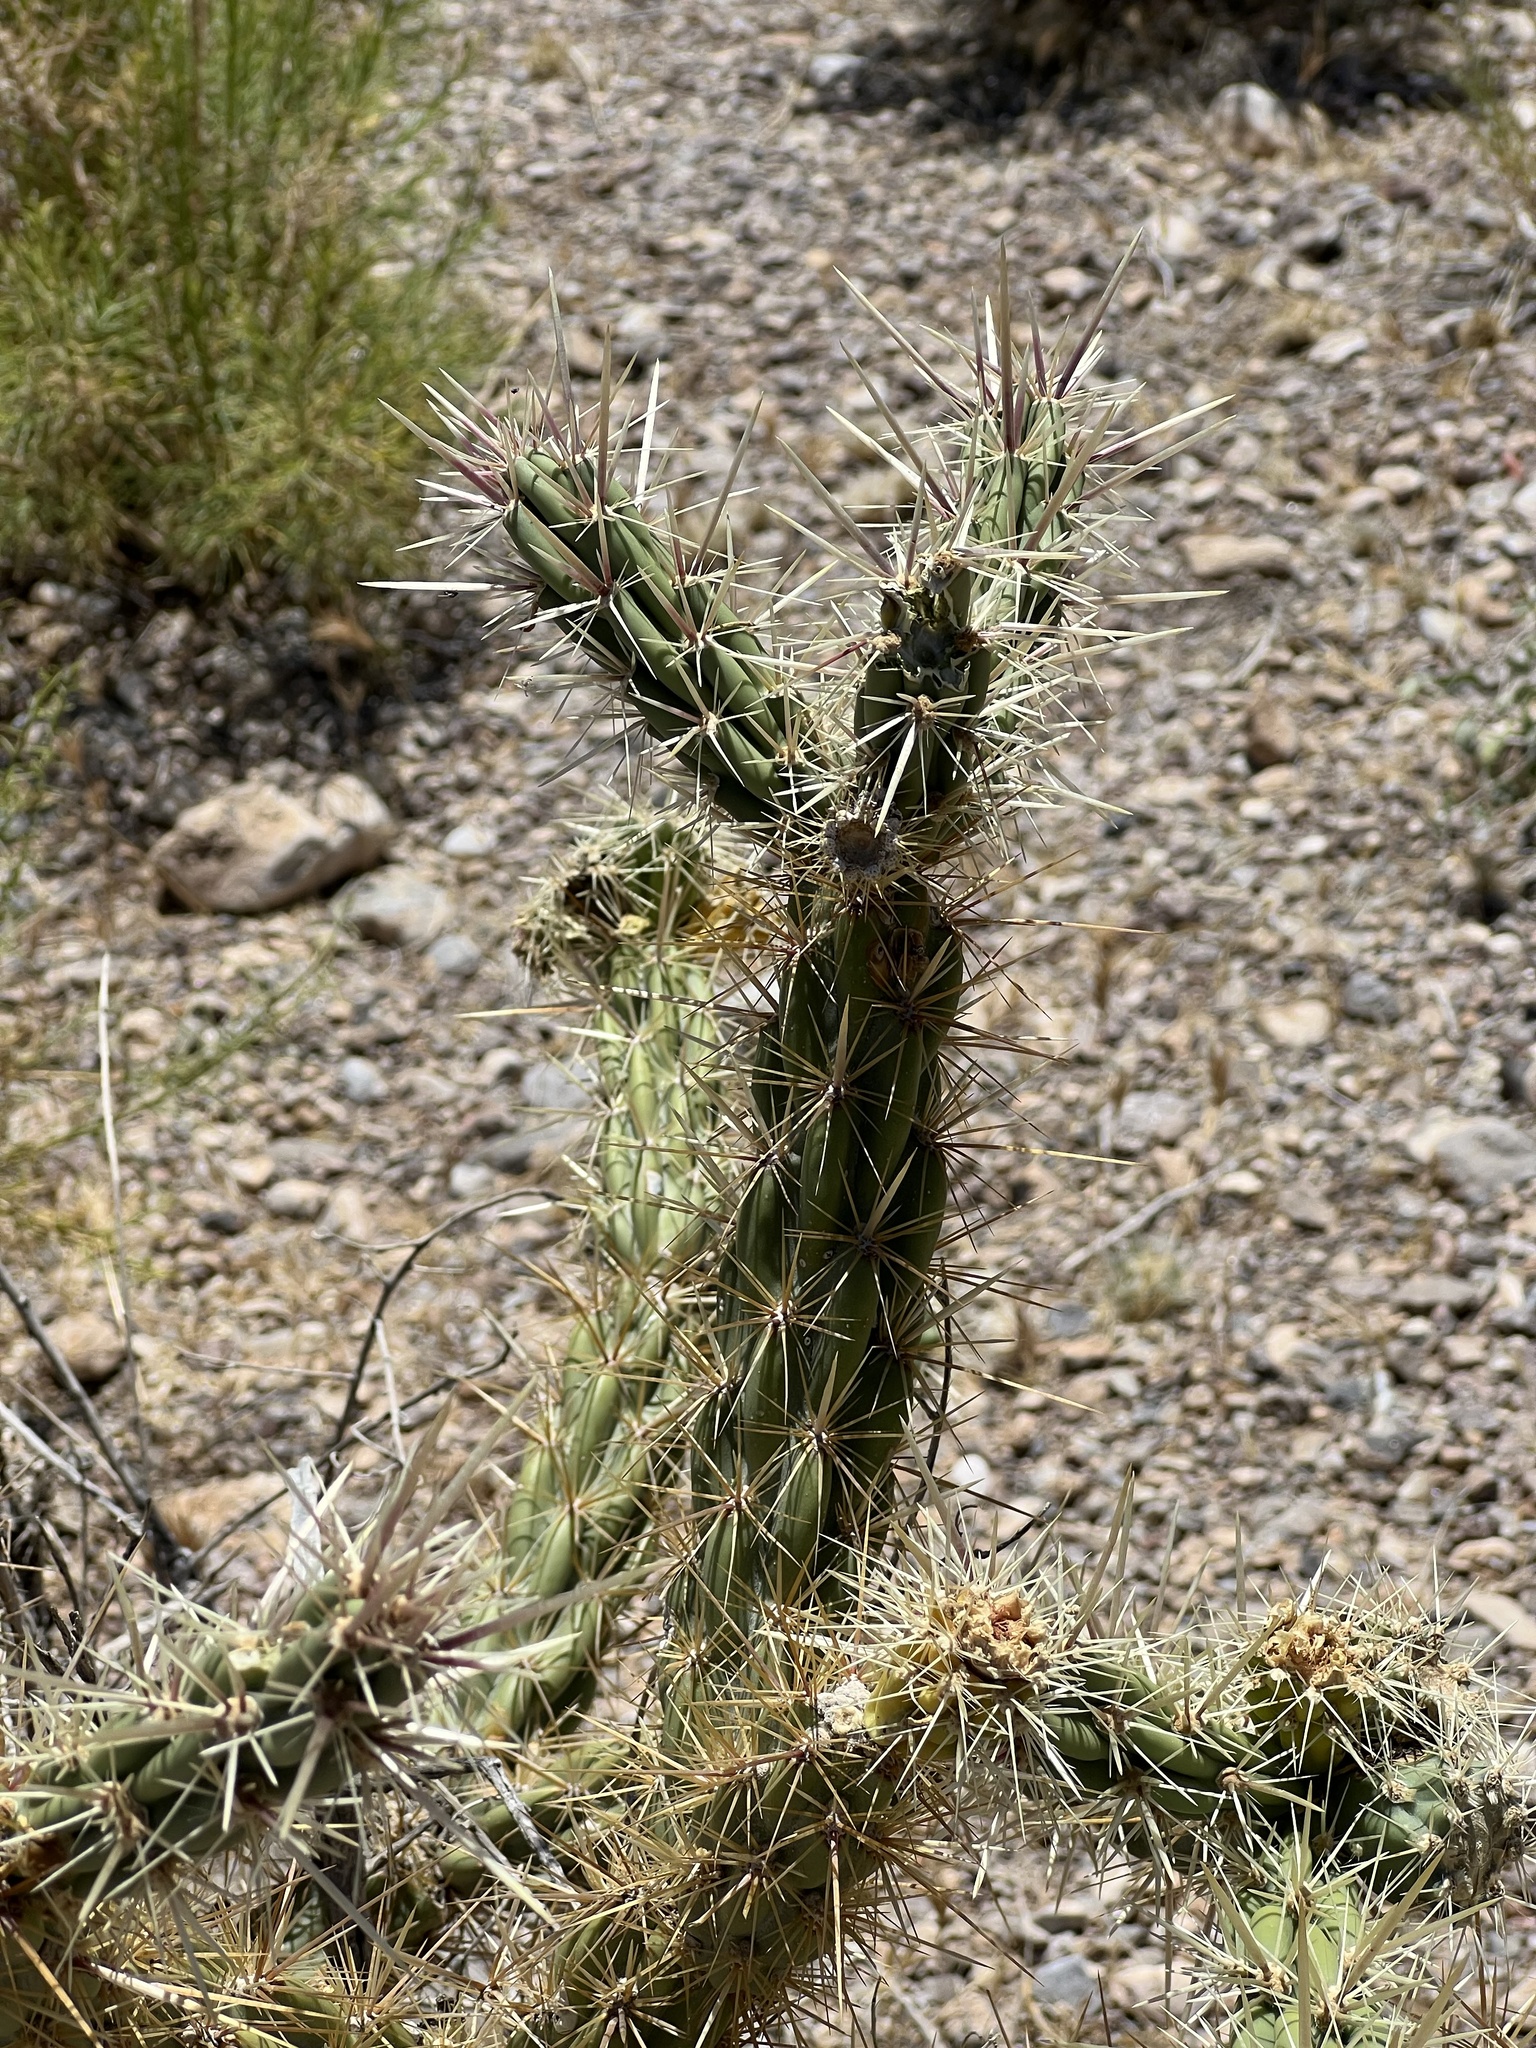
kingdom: Plantae
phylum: Tracheophyta
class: Magnoliopsida
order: Caryophyllales
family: Cactaceae
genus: Cylindropuntia
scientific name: Cylindropuntia acanthocarpa
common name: Buckhorn cholla
